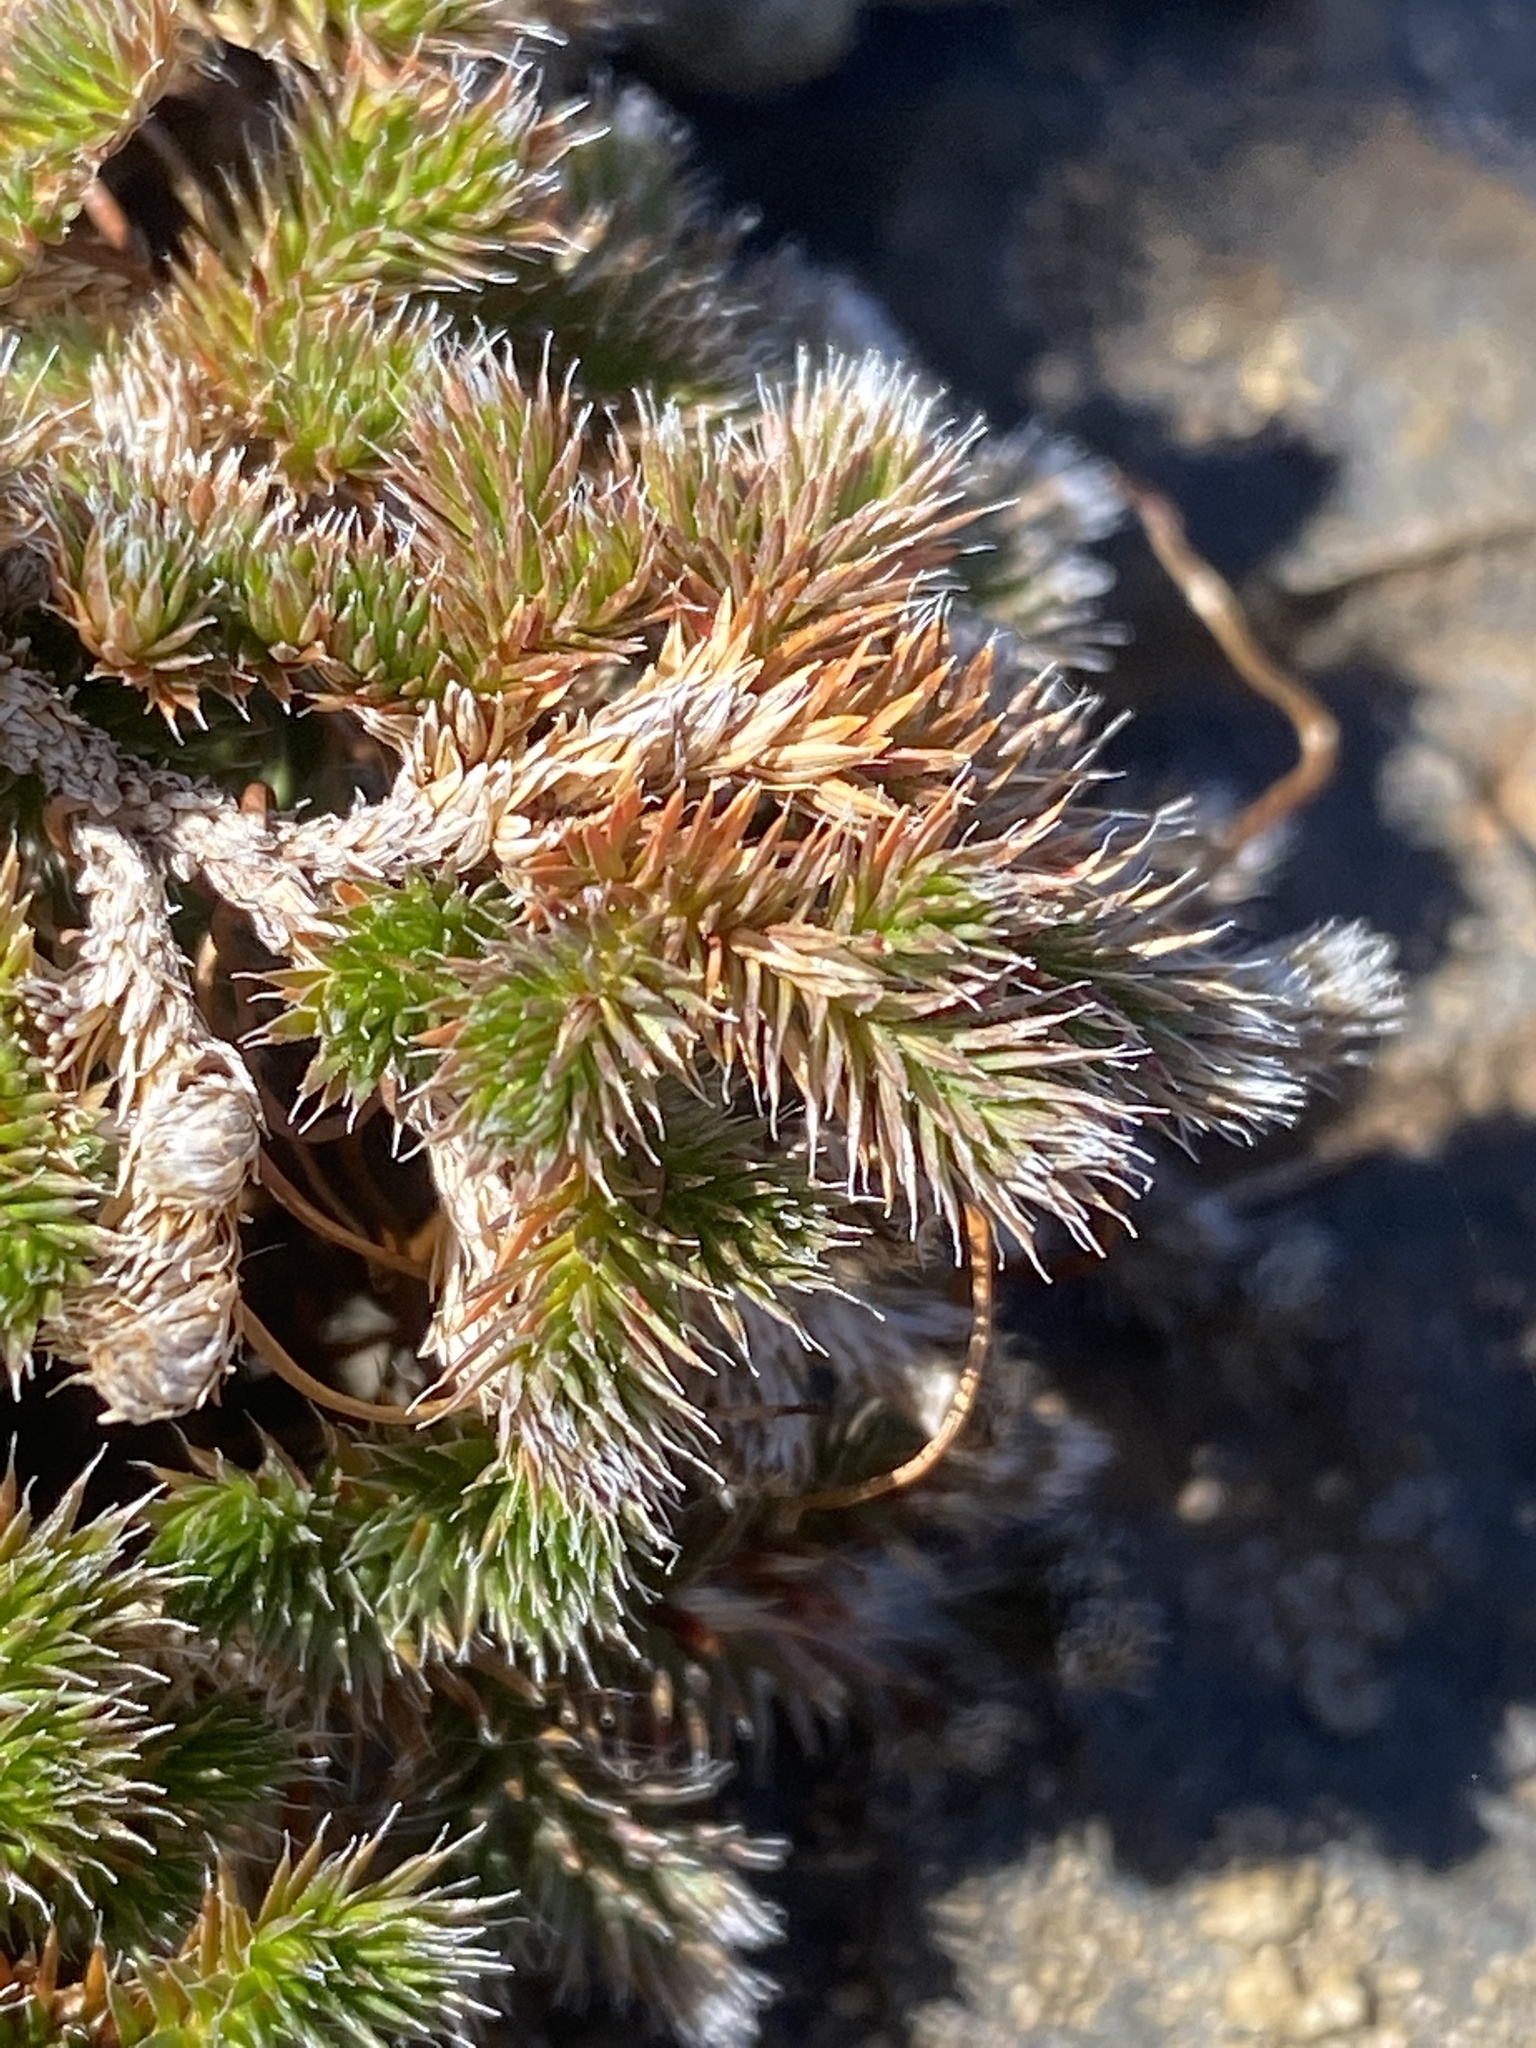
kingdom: Plantae
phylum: Tracheophyta
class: Lycopodiopsida
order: Selaginellales
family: Selaginellaceae
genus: Selaginella
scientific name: Selaginella hansenii
